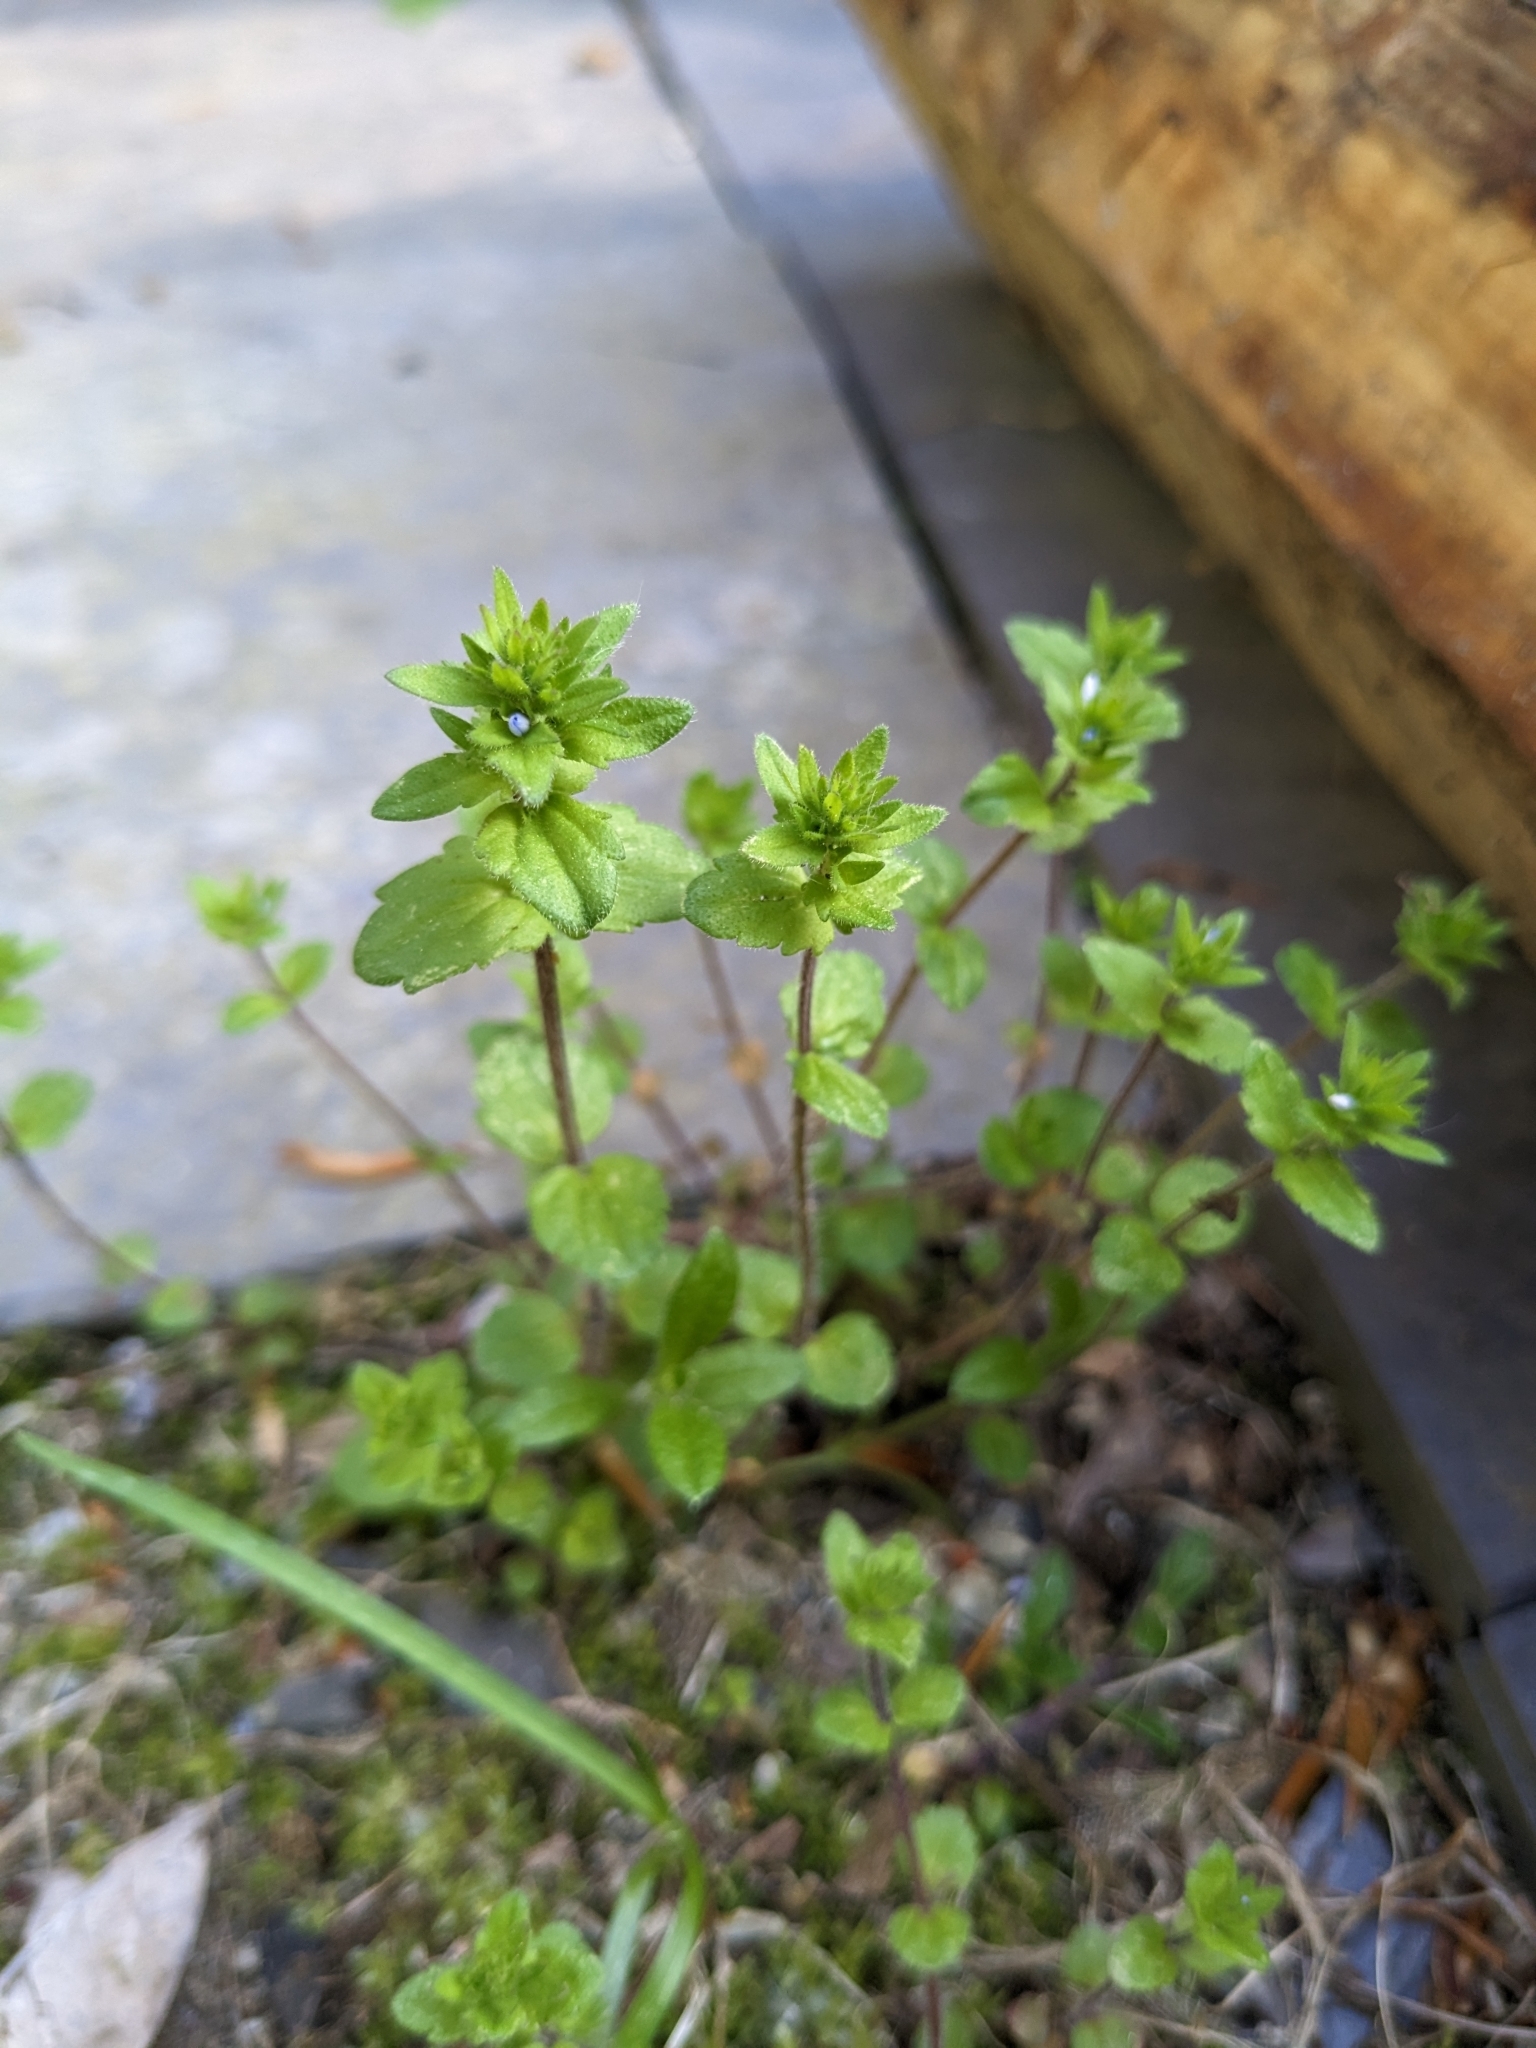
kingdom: Plantae
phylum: Tracheophyta
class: Magnoliopsida
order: Lamiales
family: Plantaginaceae
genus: Veronica
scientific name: Veronica arvensis
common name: Corn speedwell
